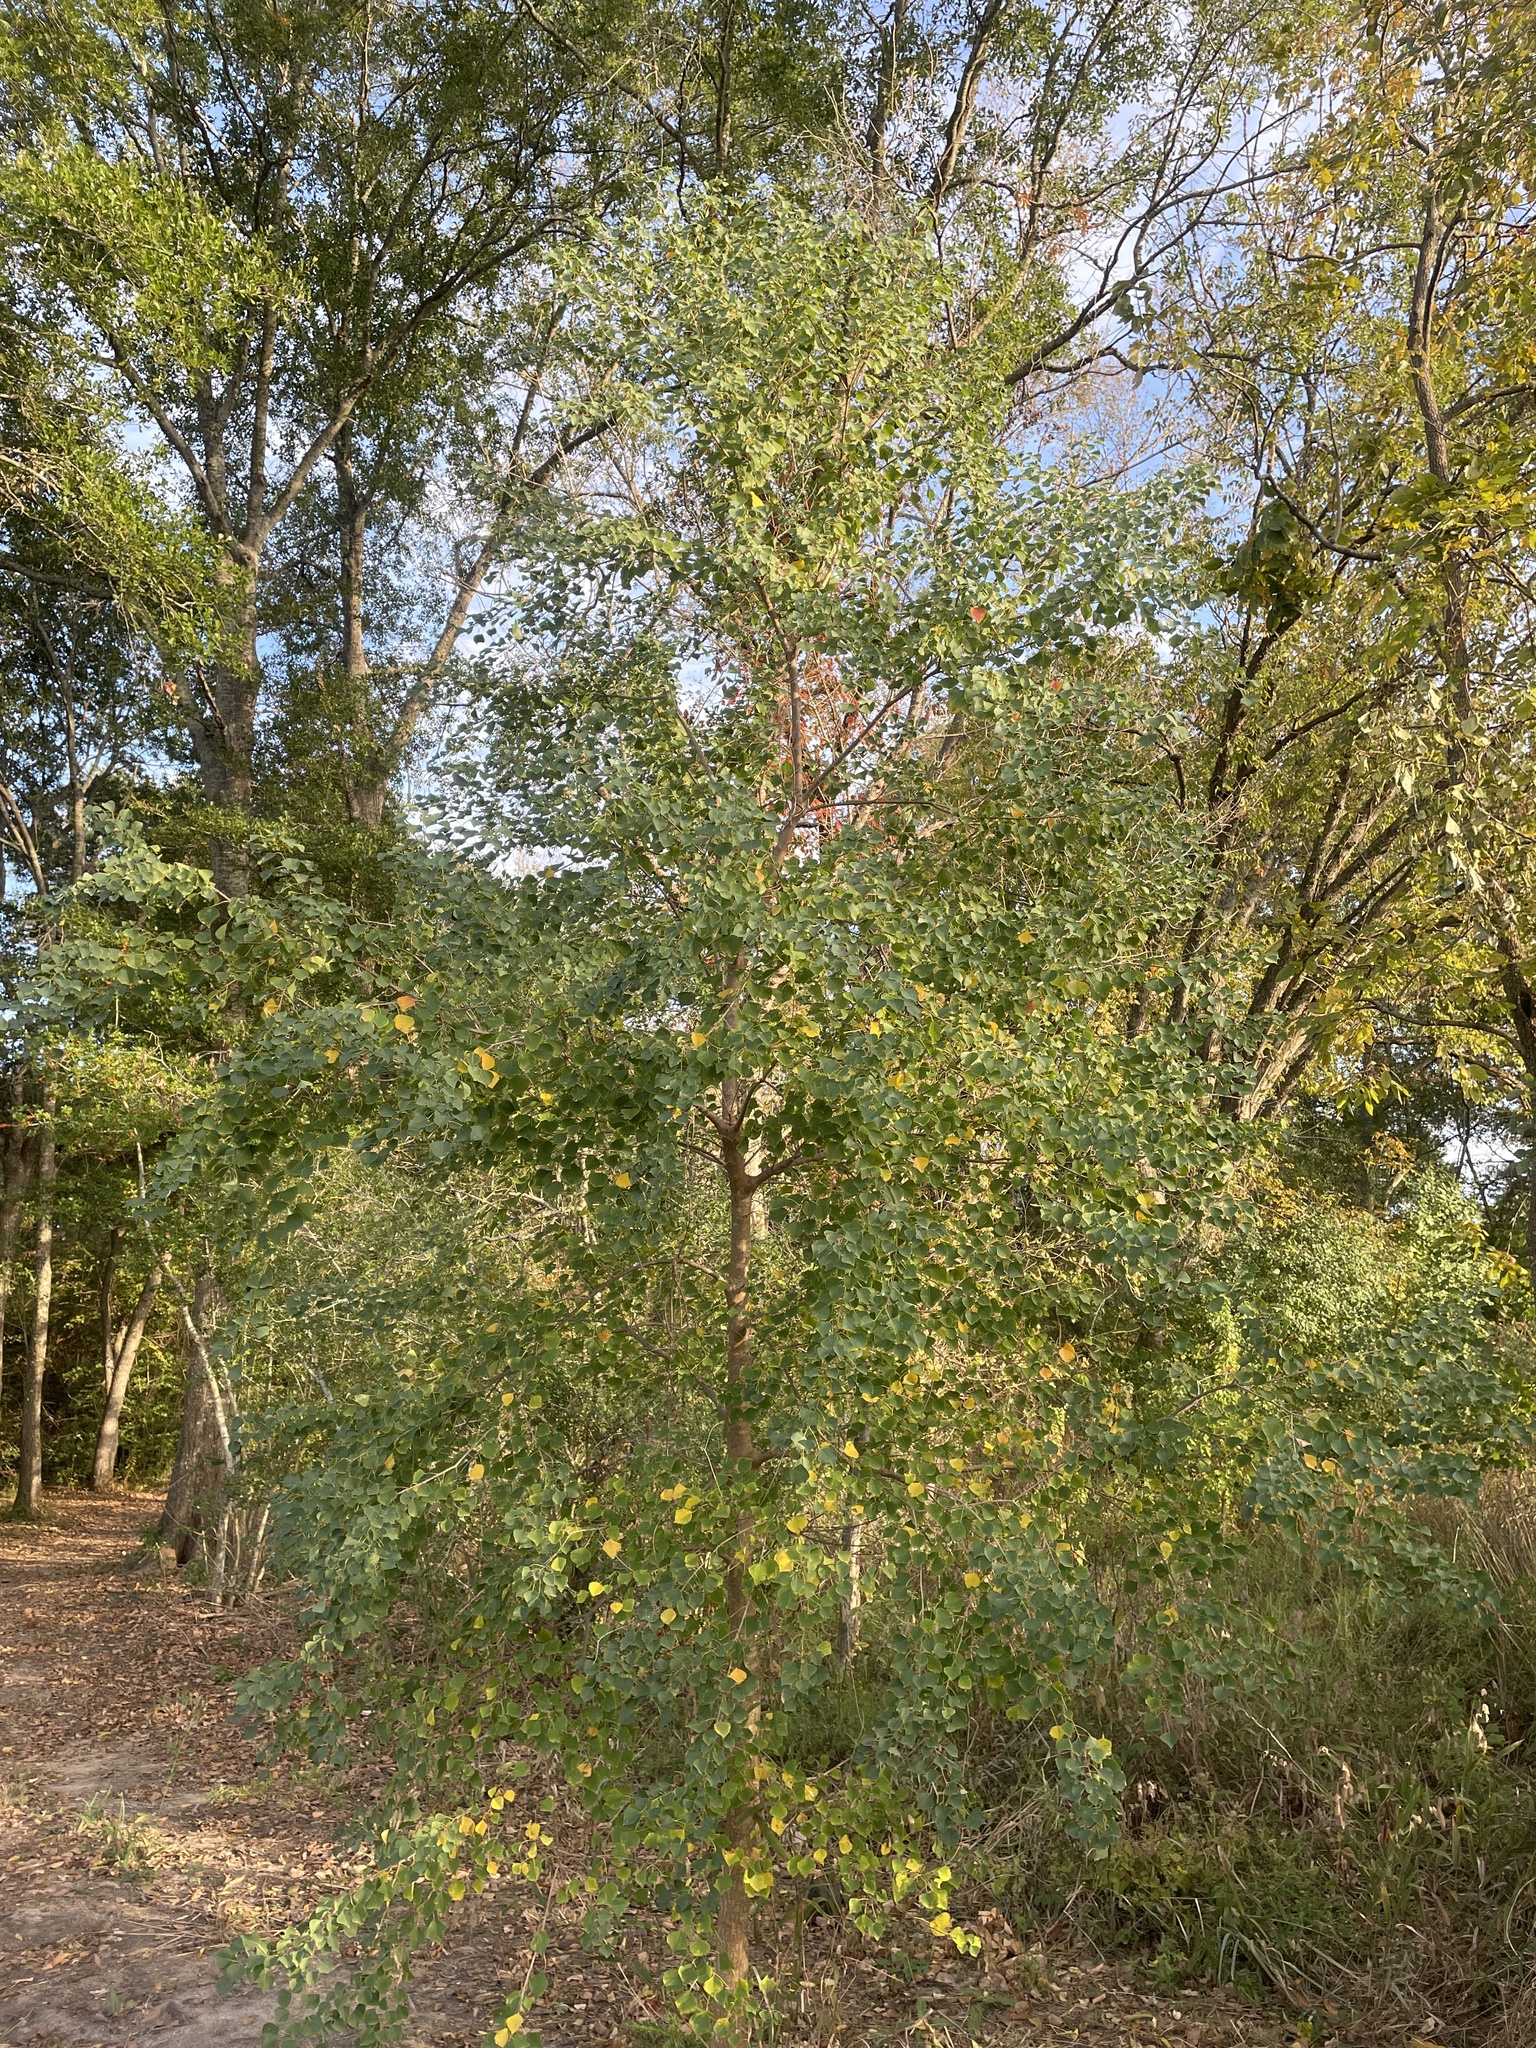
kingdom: Plantae
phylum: Tracheophyta
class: Magnoliopsida
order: Malpighiales
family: Euphorbiaceae
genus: Triadica
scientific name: Triadica sebifera
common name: Chinese tallow
